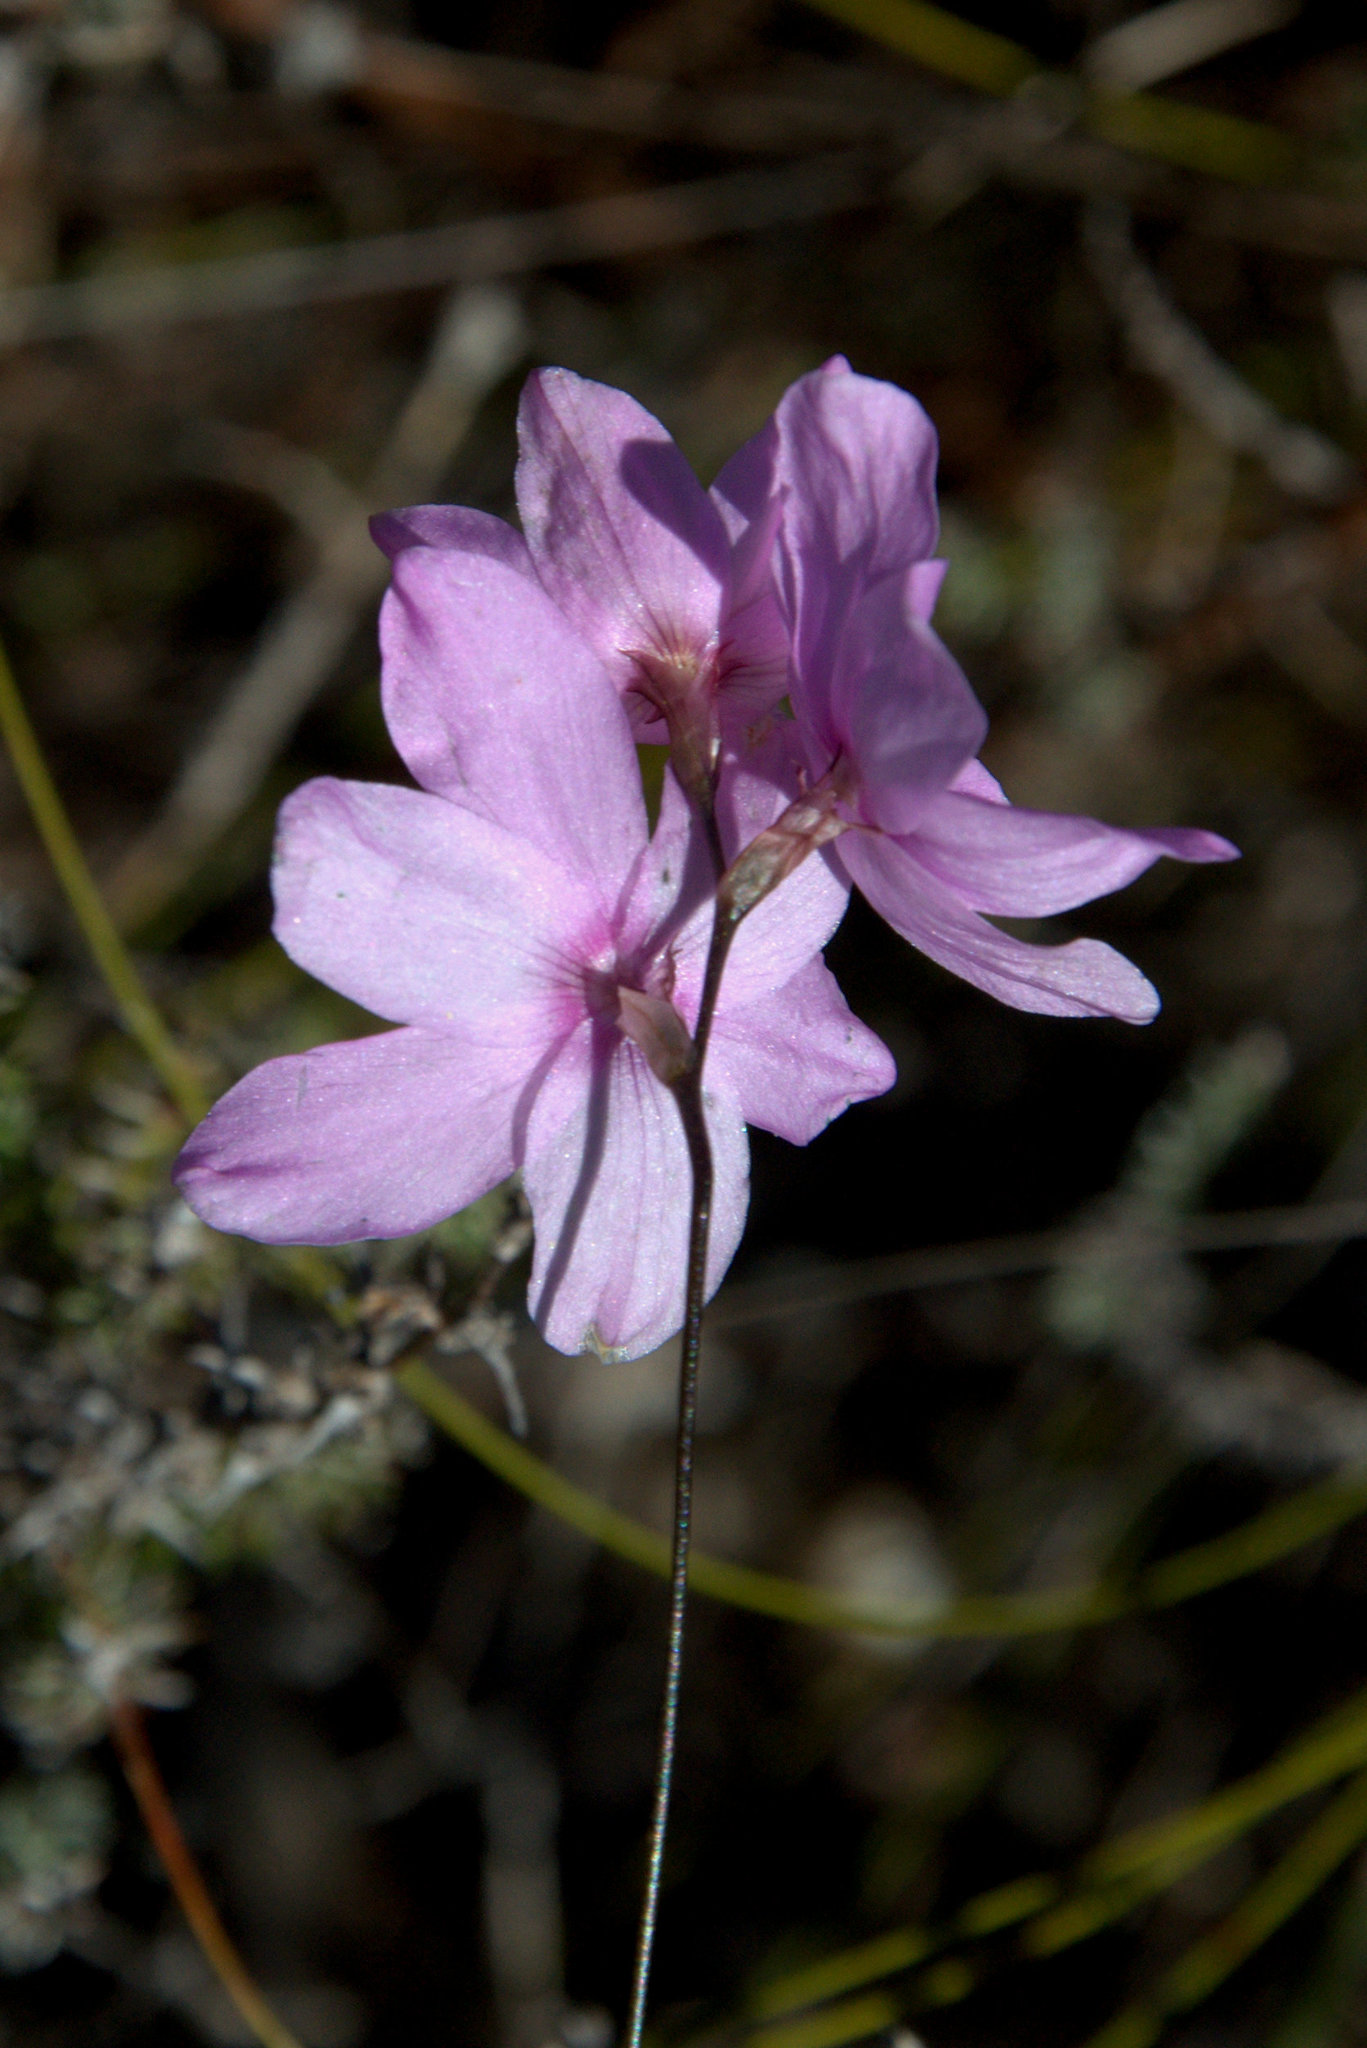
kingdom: Plantae
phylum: Tracheophyta
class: Liliopsida
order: Asparagales
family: Iridaceae
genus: Ixia
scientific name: Ixia micrandra
